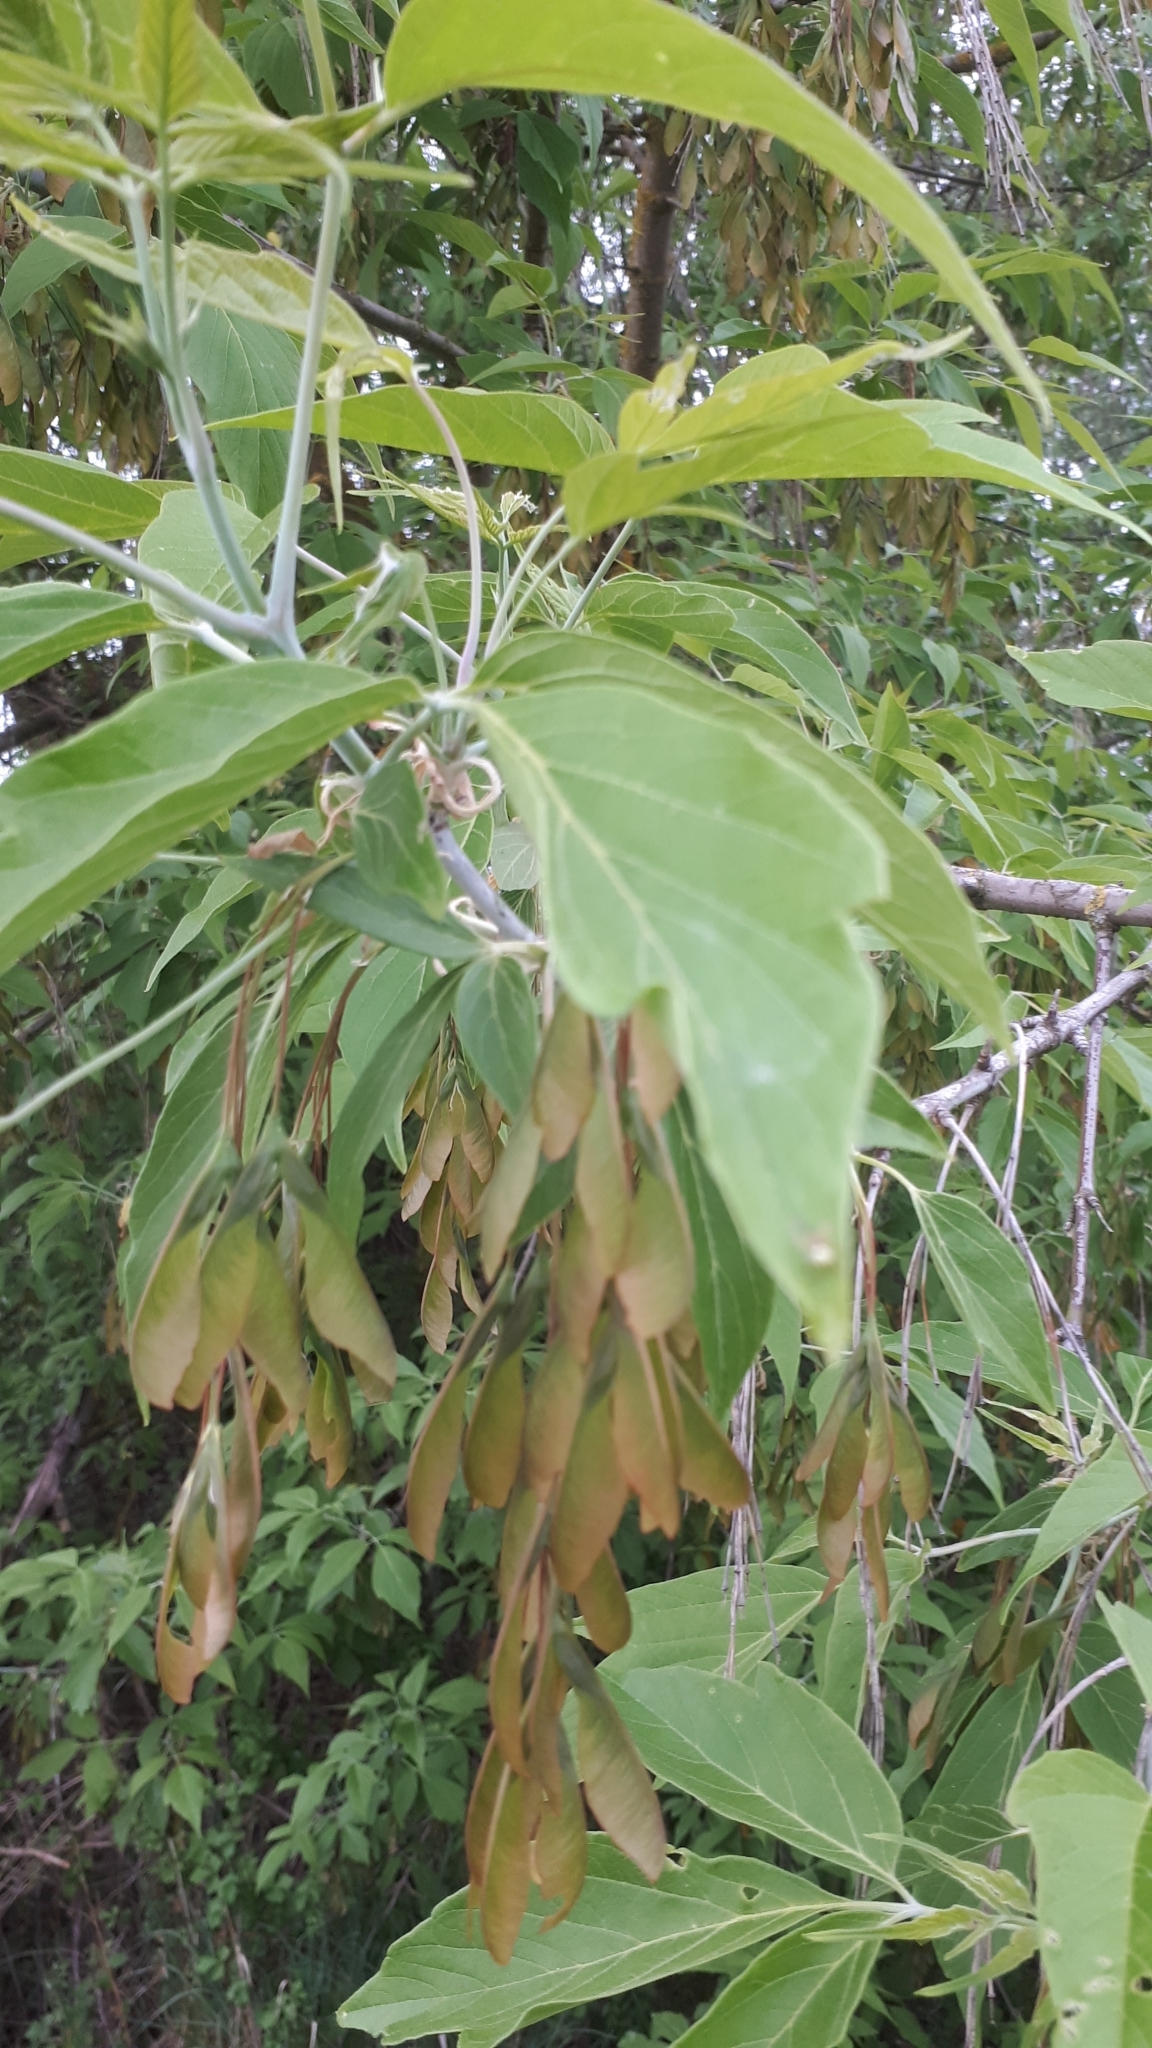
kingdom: Plantae
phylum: Tracheophyta
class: Magnoliopsida
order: Sapindales
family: Sapindaceae
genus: Acer
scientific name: Acer negundo
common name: Ashleaf maple
